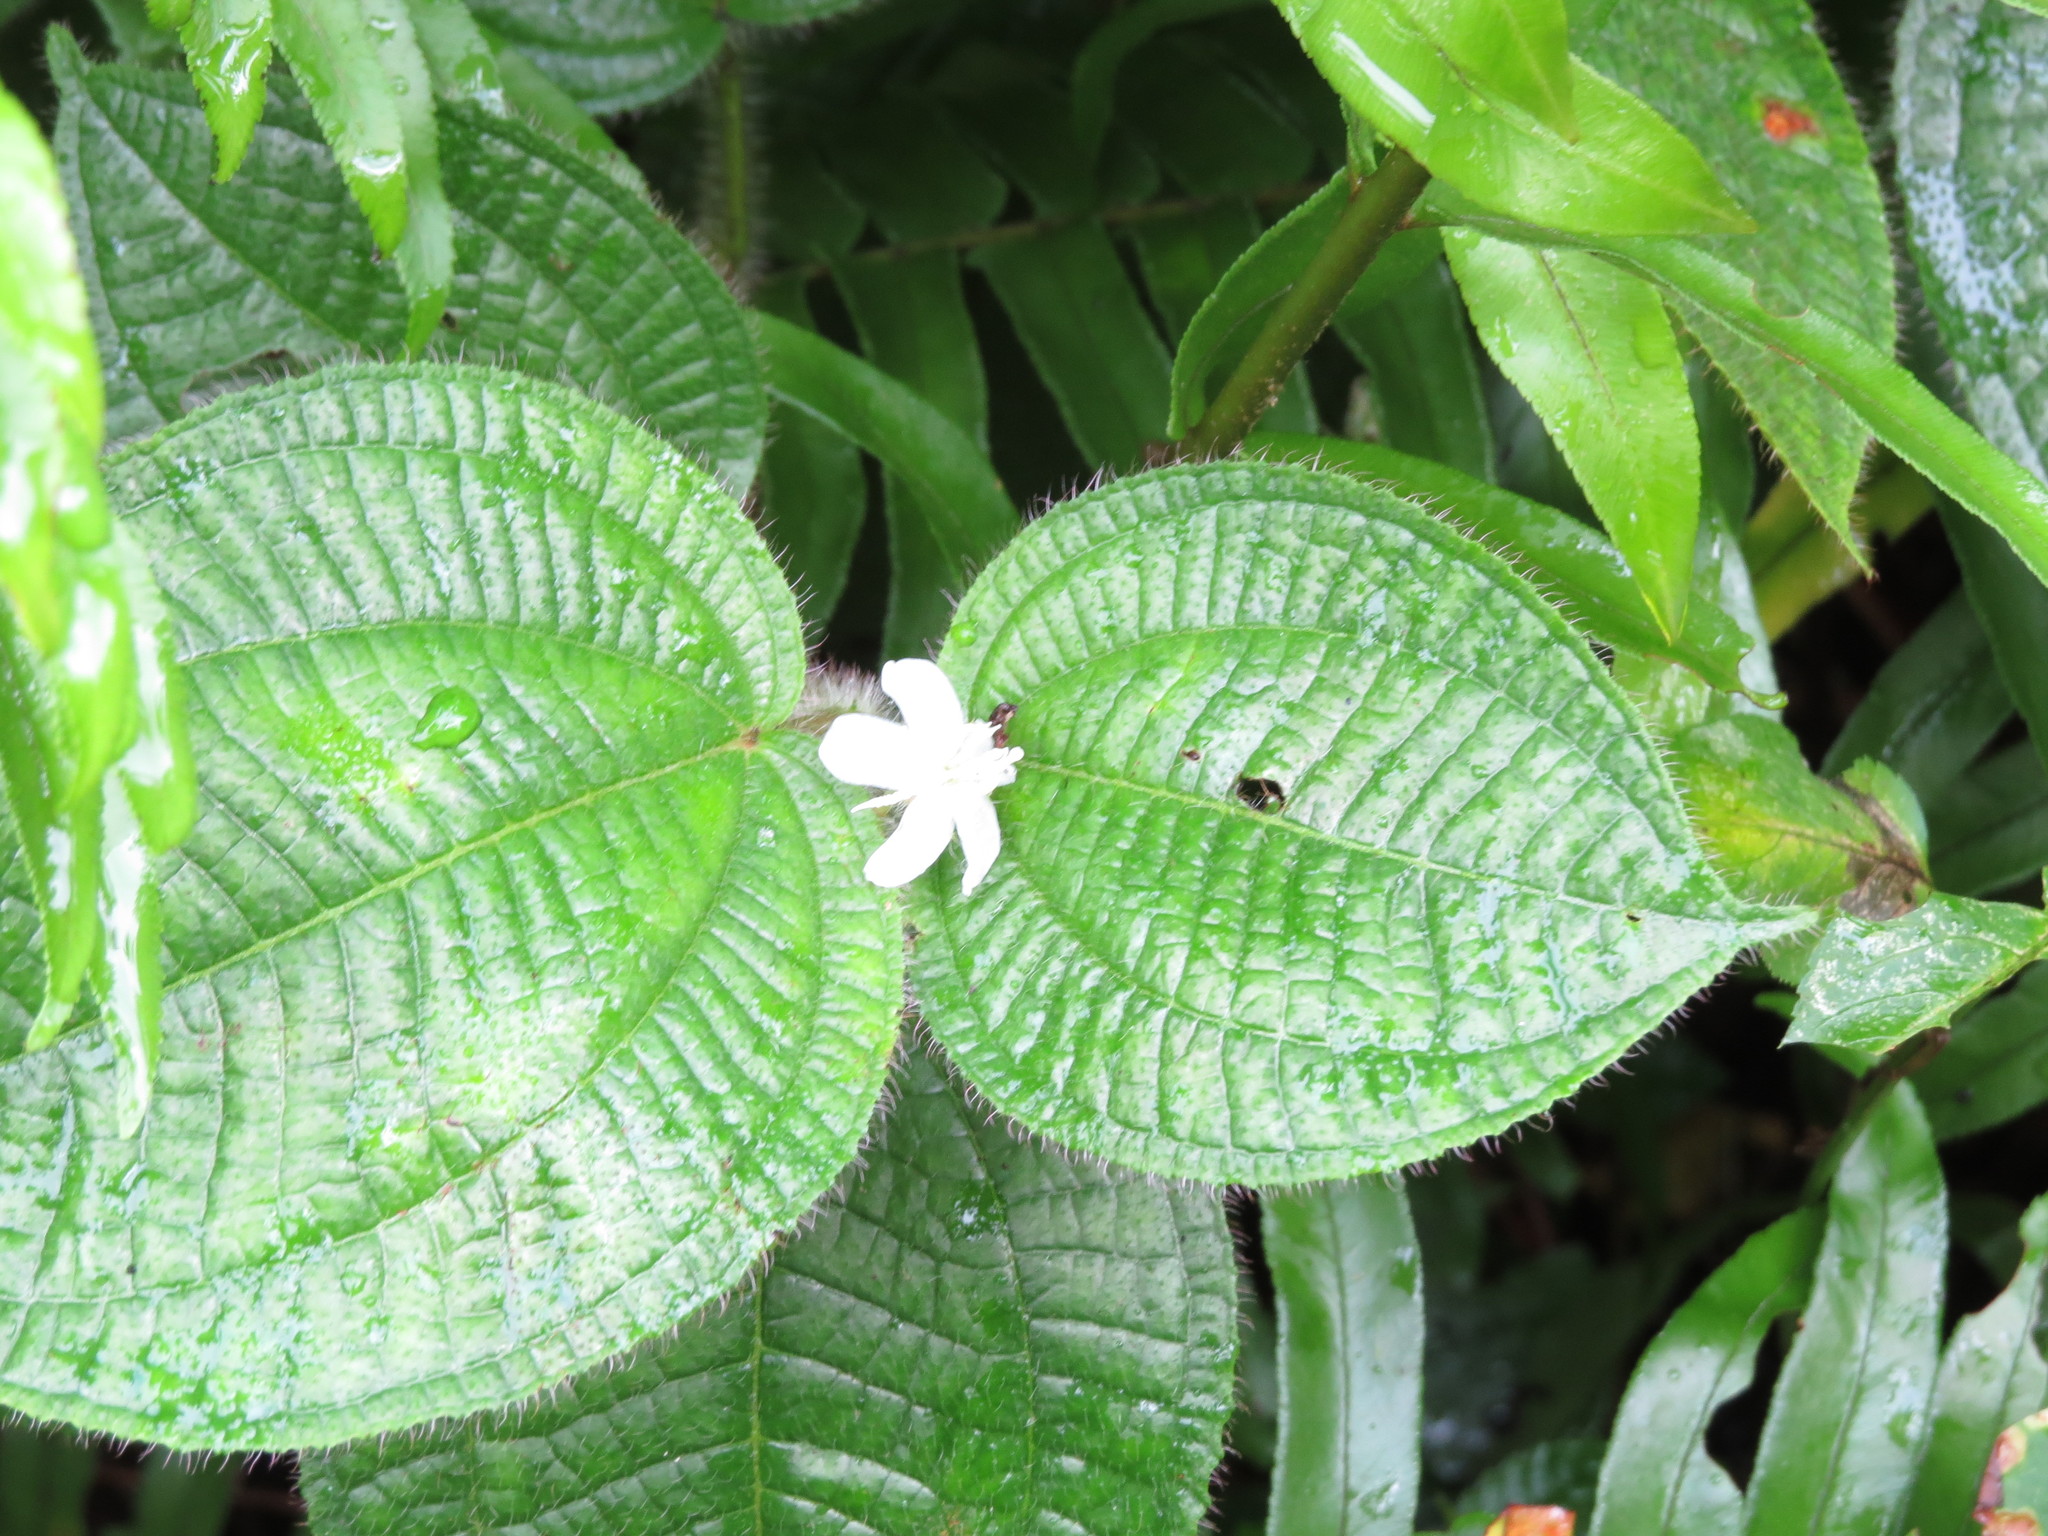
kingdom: Plantae
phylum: Tracheophyta
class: Magnoliopsida
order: Myrtales
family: Melastomataceae
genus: Miconia
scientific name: Miconia crenata
